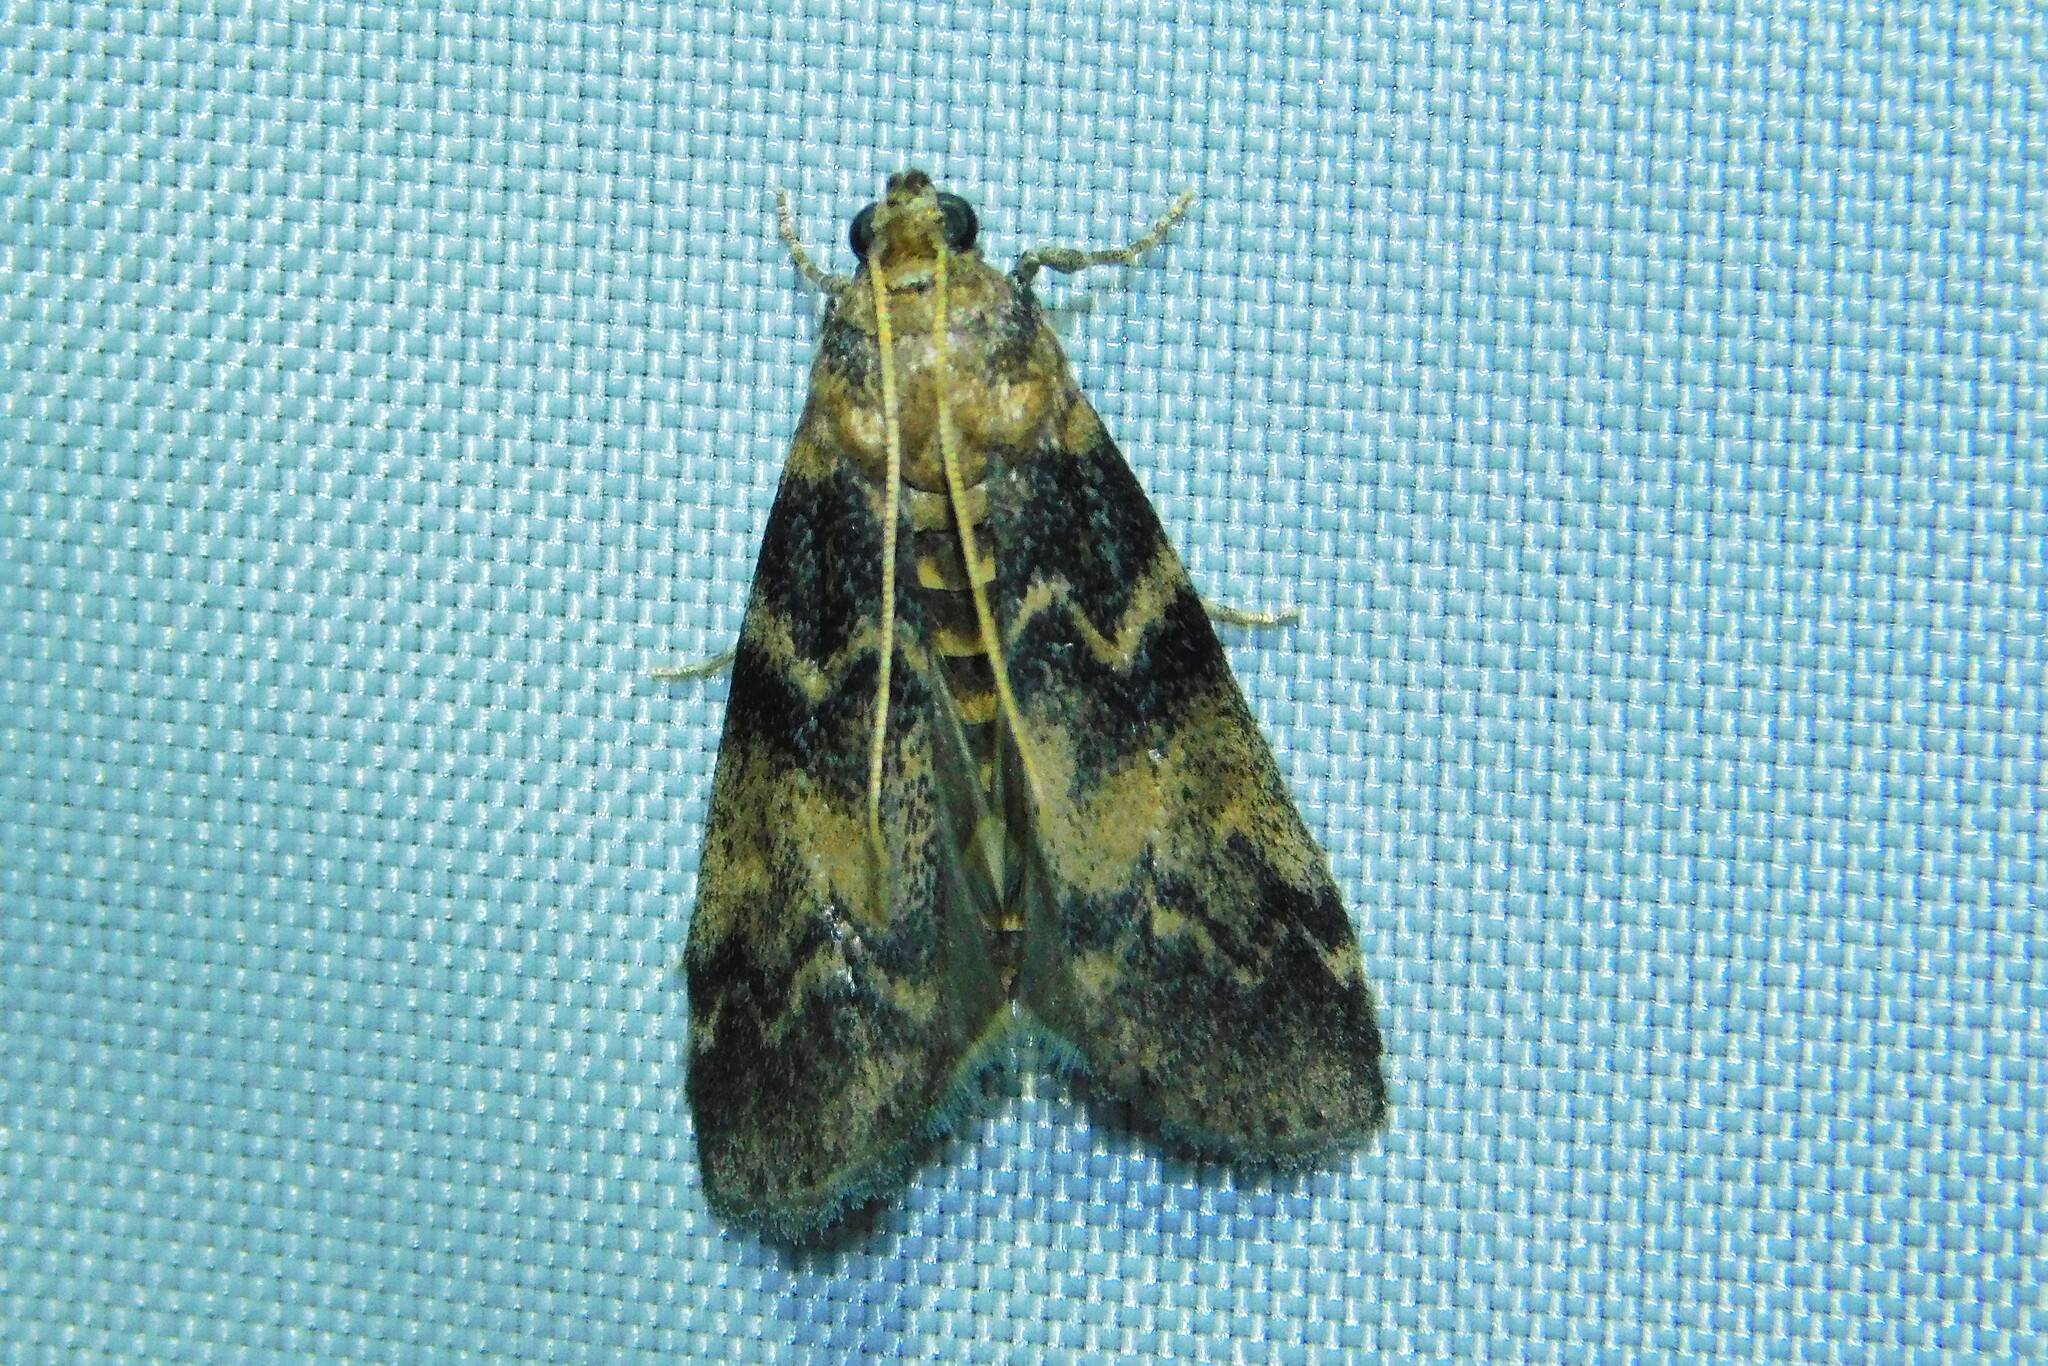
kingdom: Animalia
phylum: Arthropoda
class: Insecta
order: Lepidoptera
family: Pyralidae
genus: Euzophera
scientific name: Euzophera pinguis
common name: Ash-bark knot-horn
